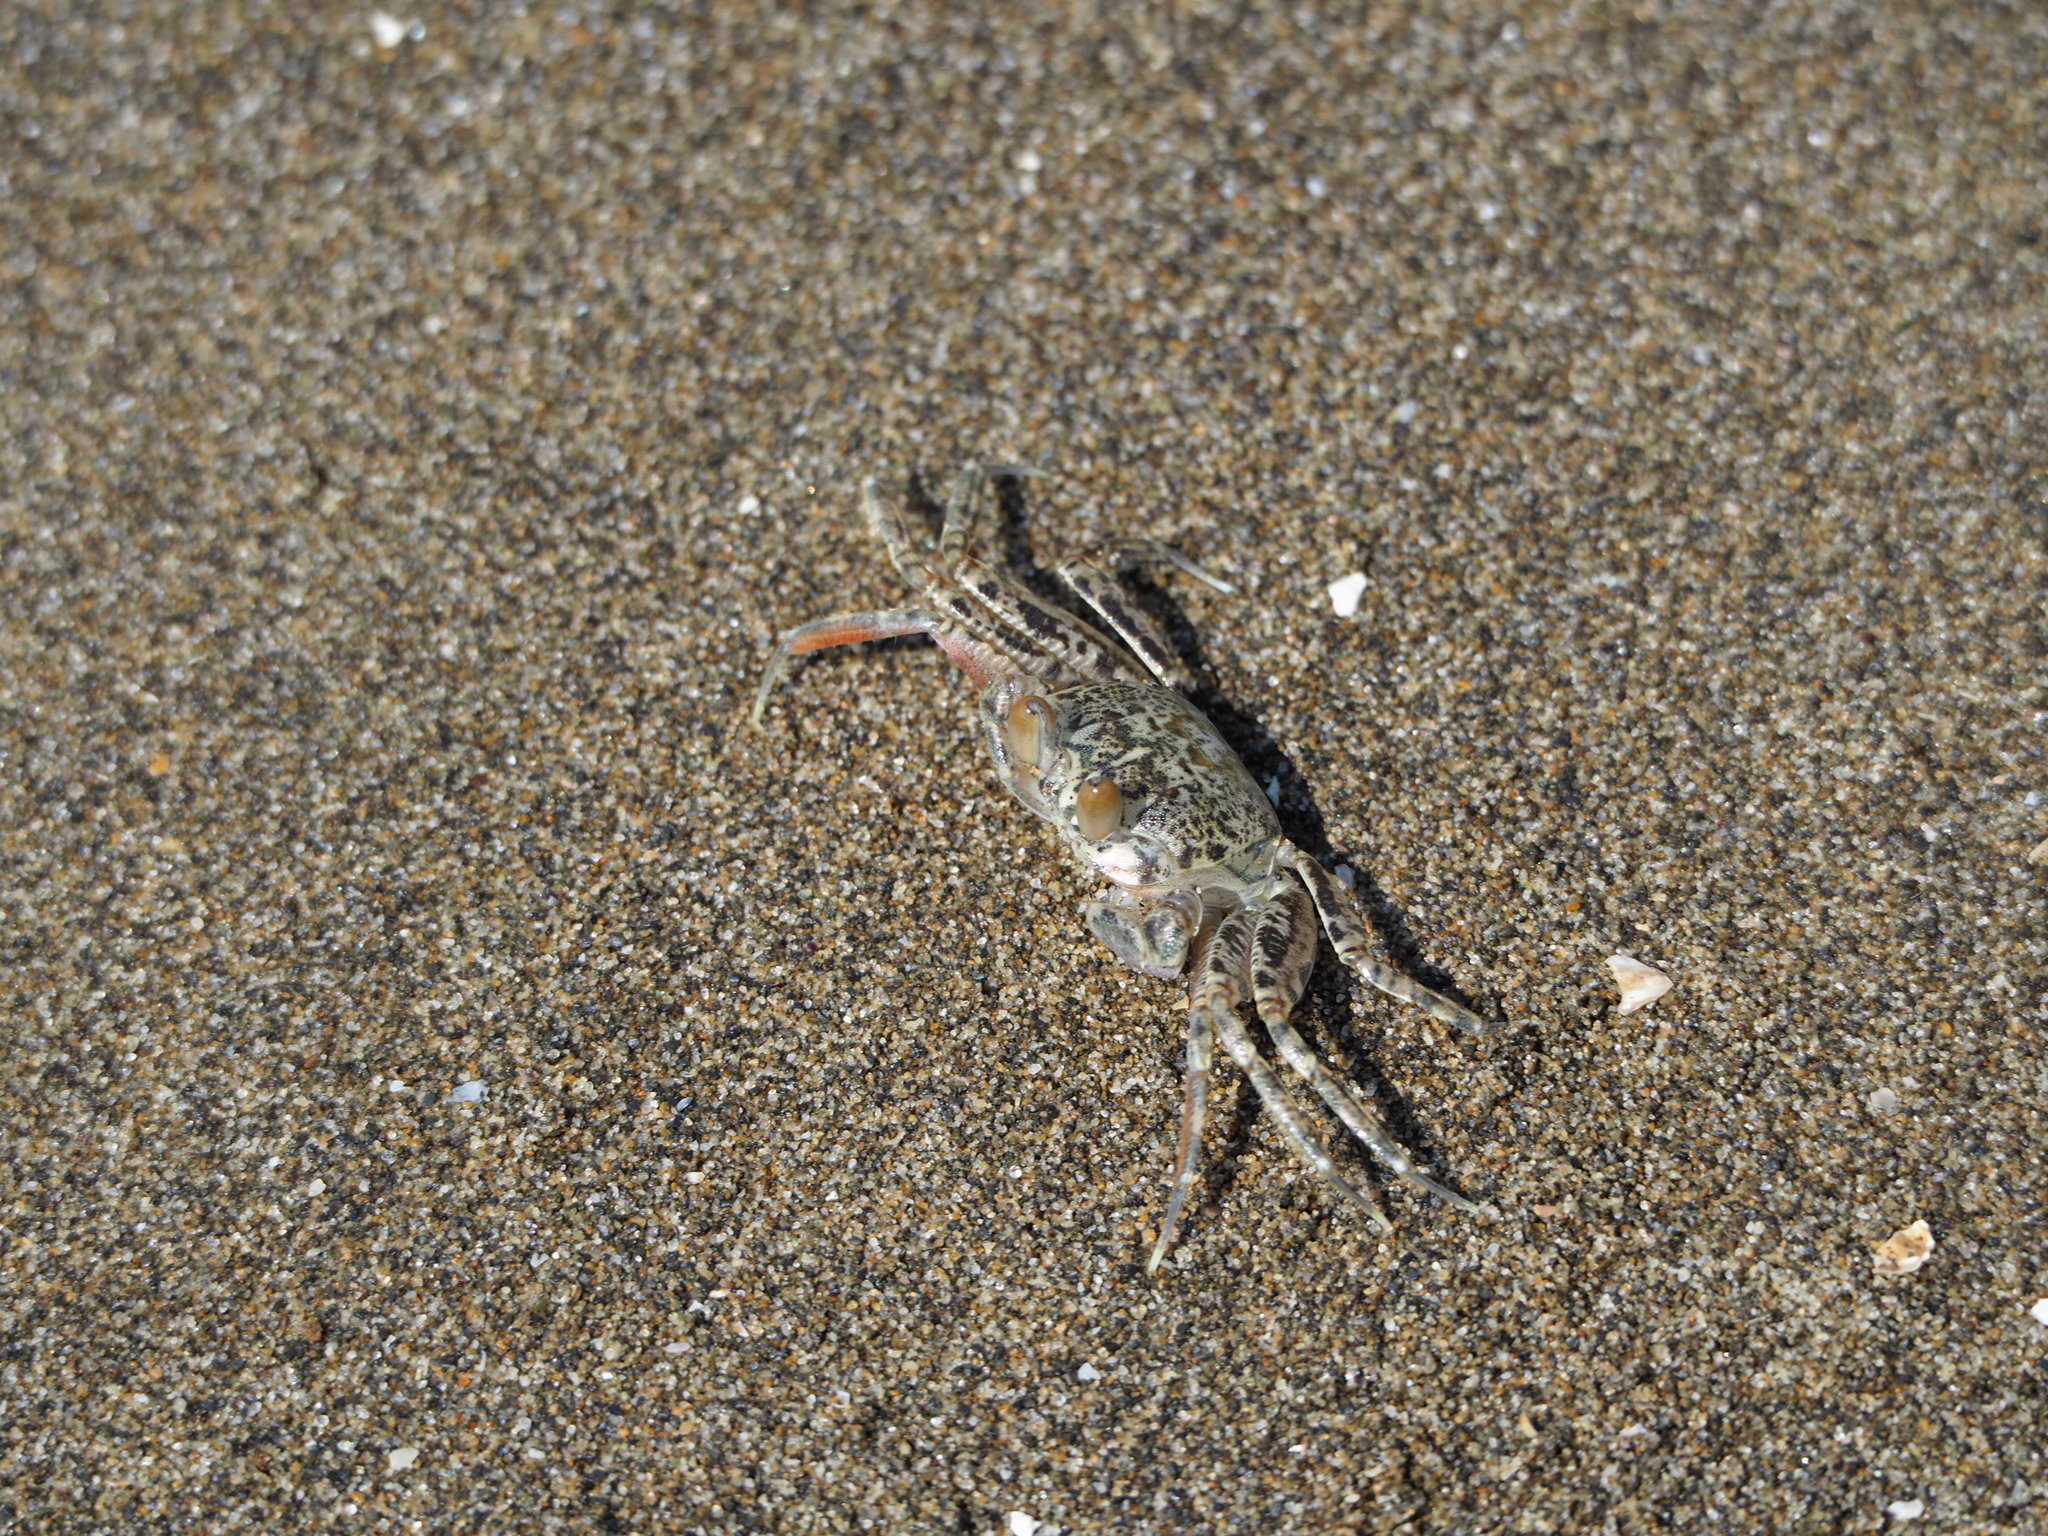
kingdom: Animalia
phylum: Arthropoda
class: Malacostraca
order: Decapoda
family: Ocypodidae
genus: Ocypode
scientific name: Ocypode ceratophthalmus
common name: Indo-pacific ghost crab
